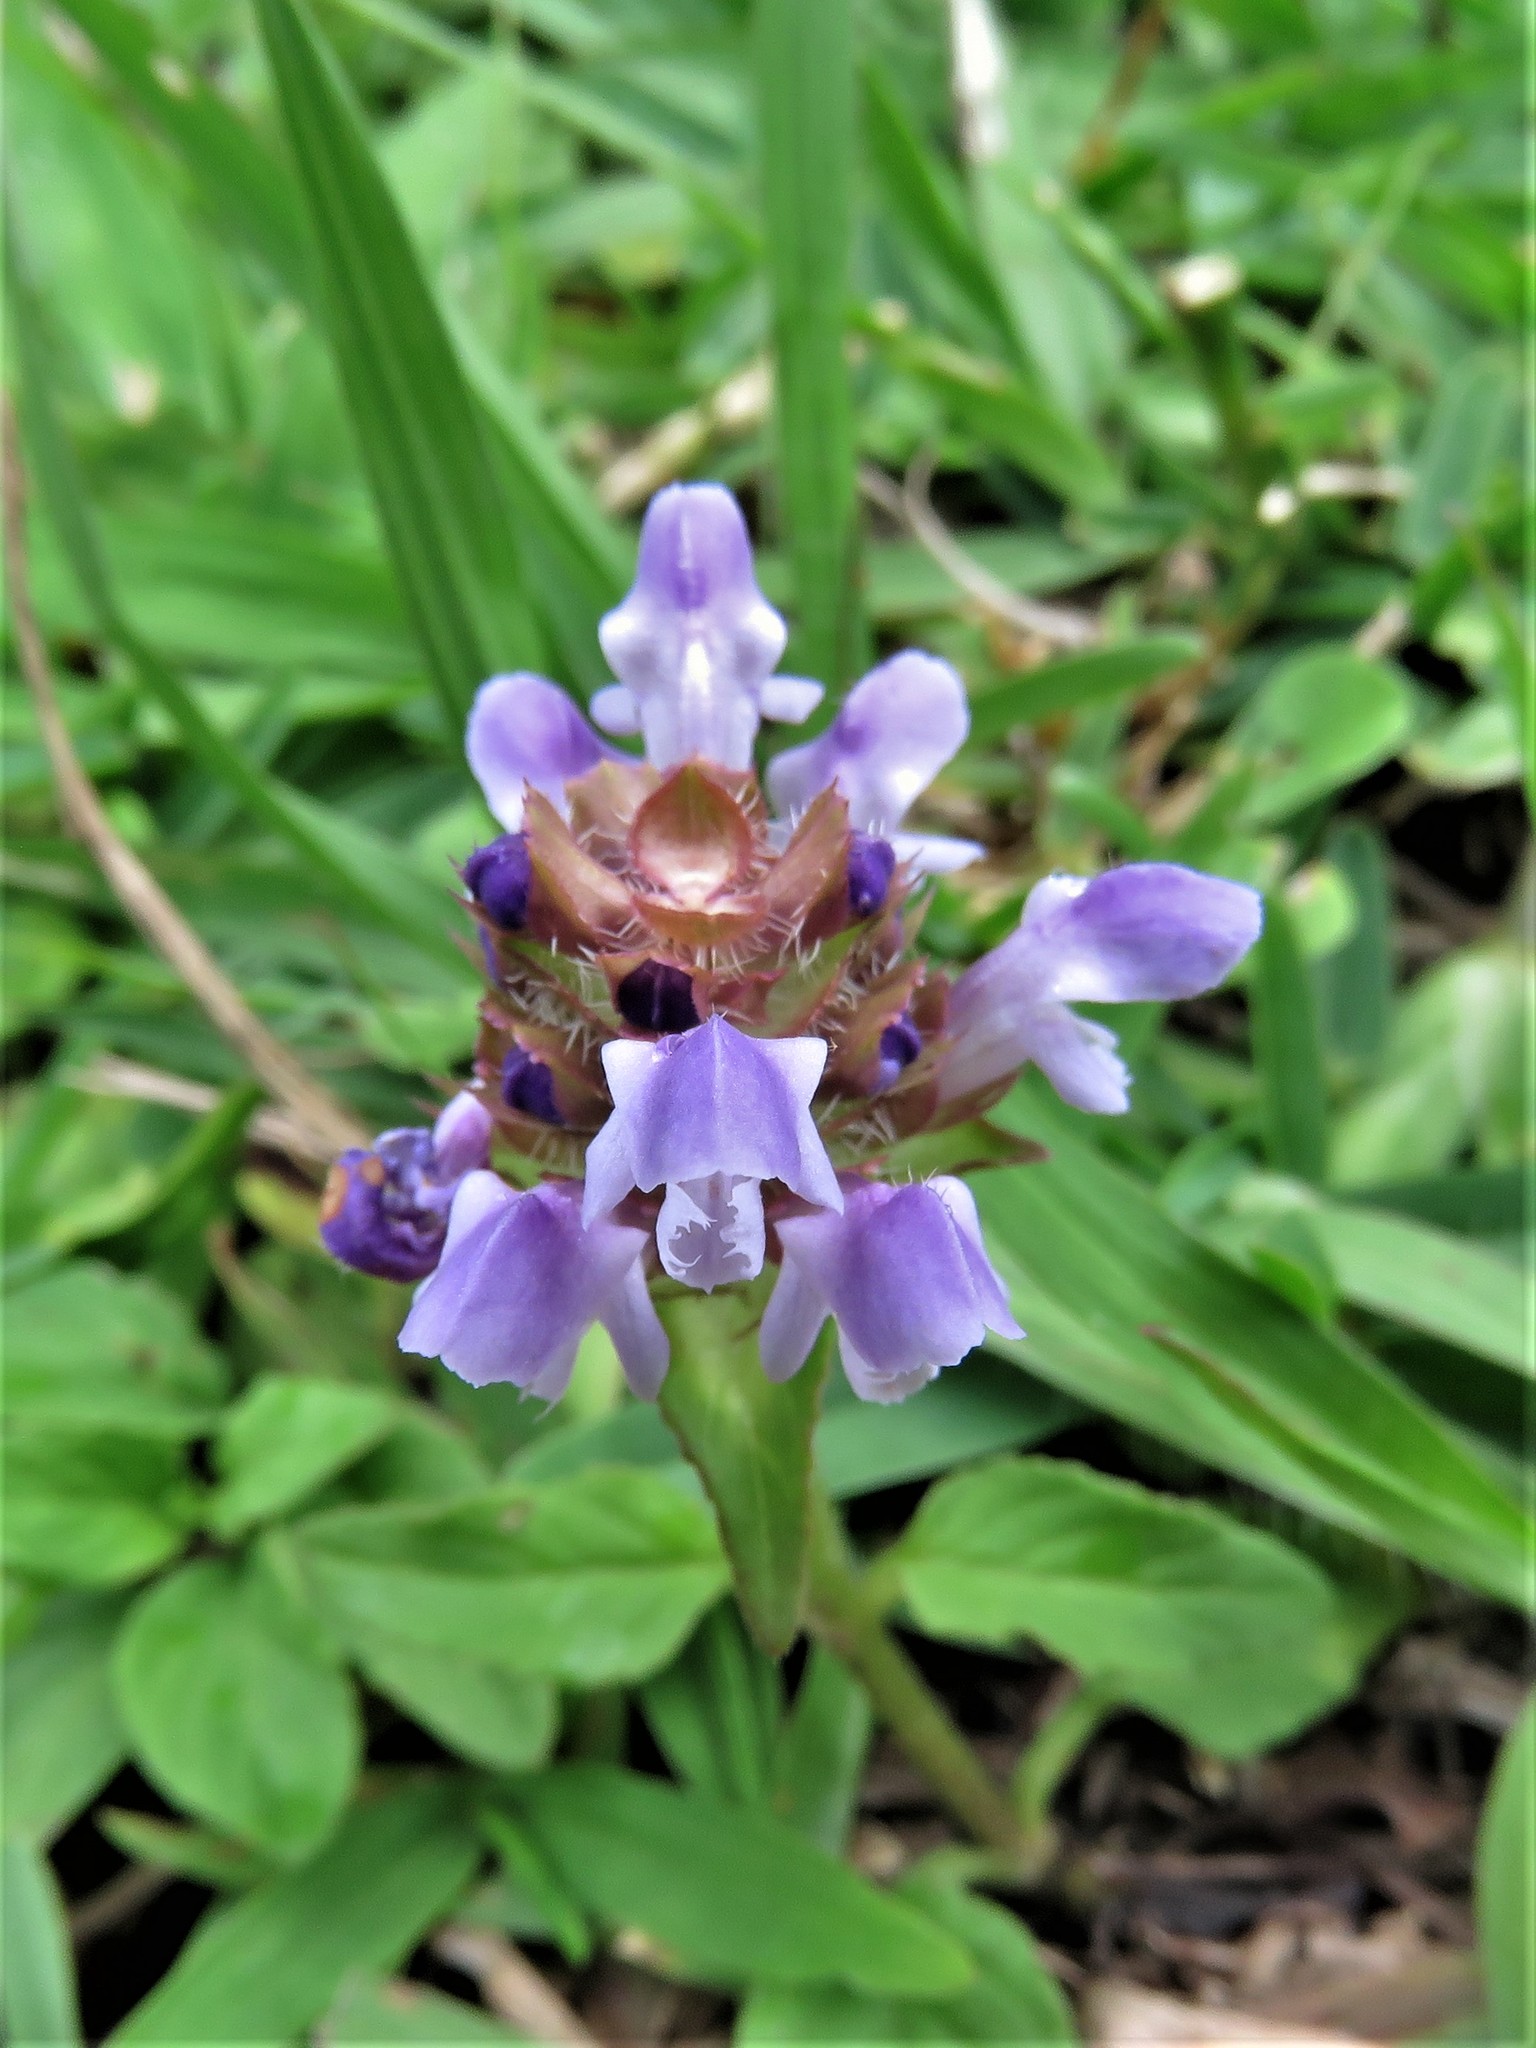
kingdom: Plantae
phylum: Tracheophyta
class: Magnoliopsida
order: Lamiales
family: Lamiaceae
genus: Prunella
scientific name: Prunella vulgaris
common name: Heal-all
